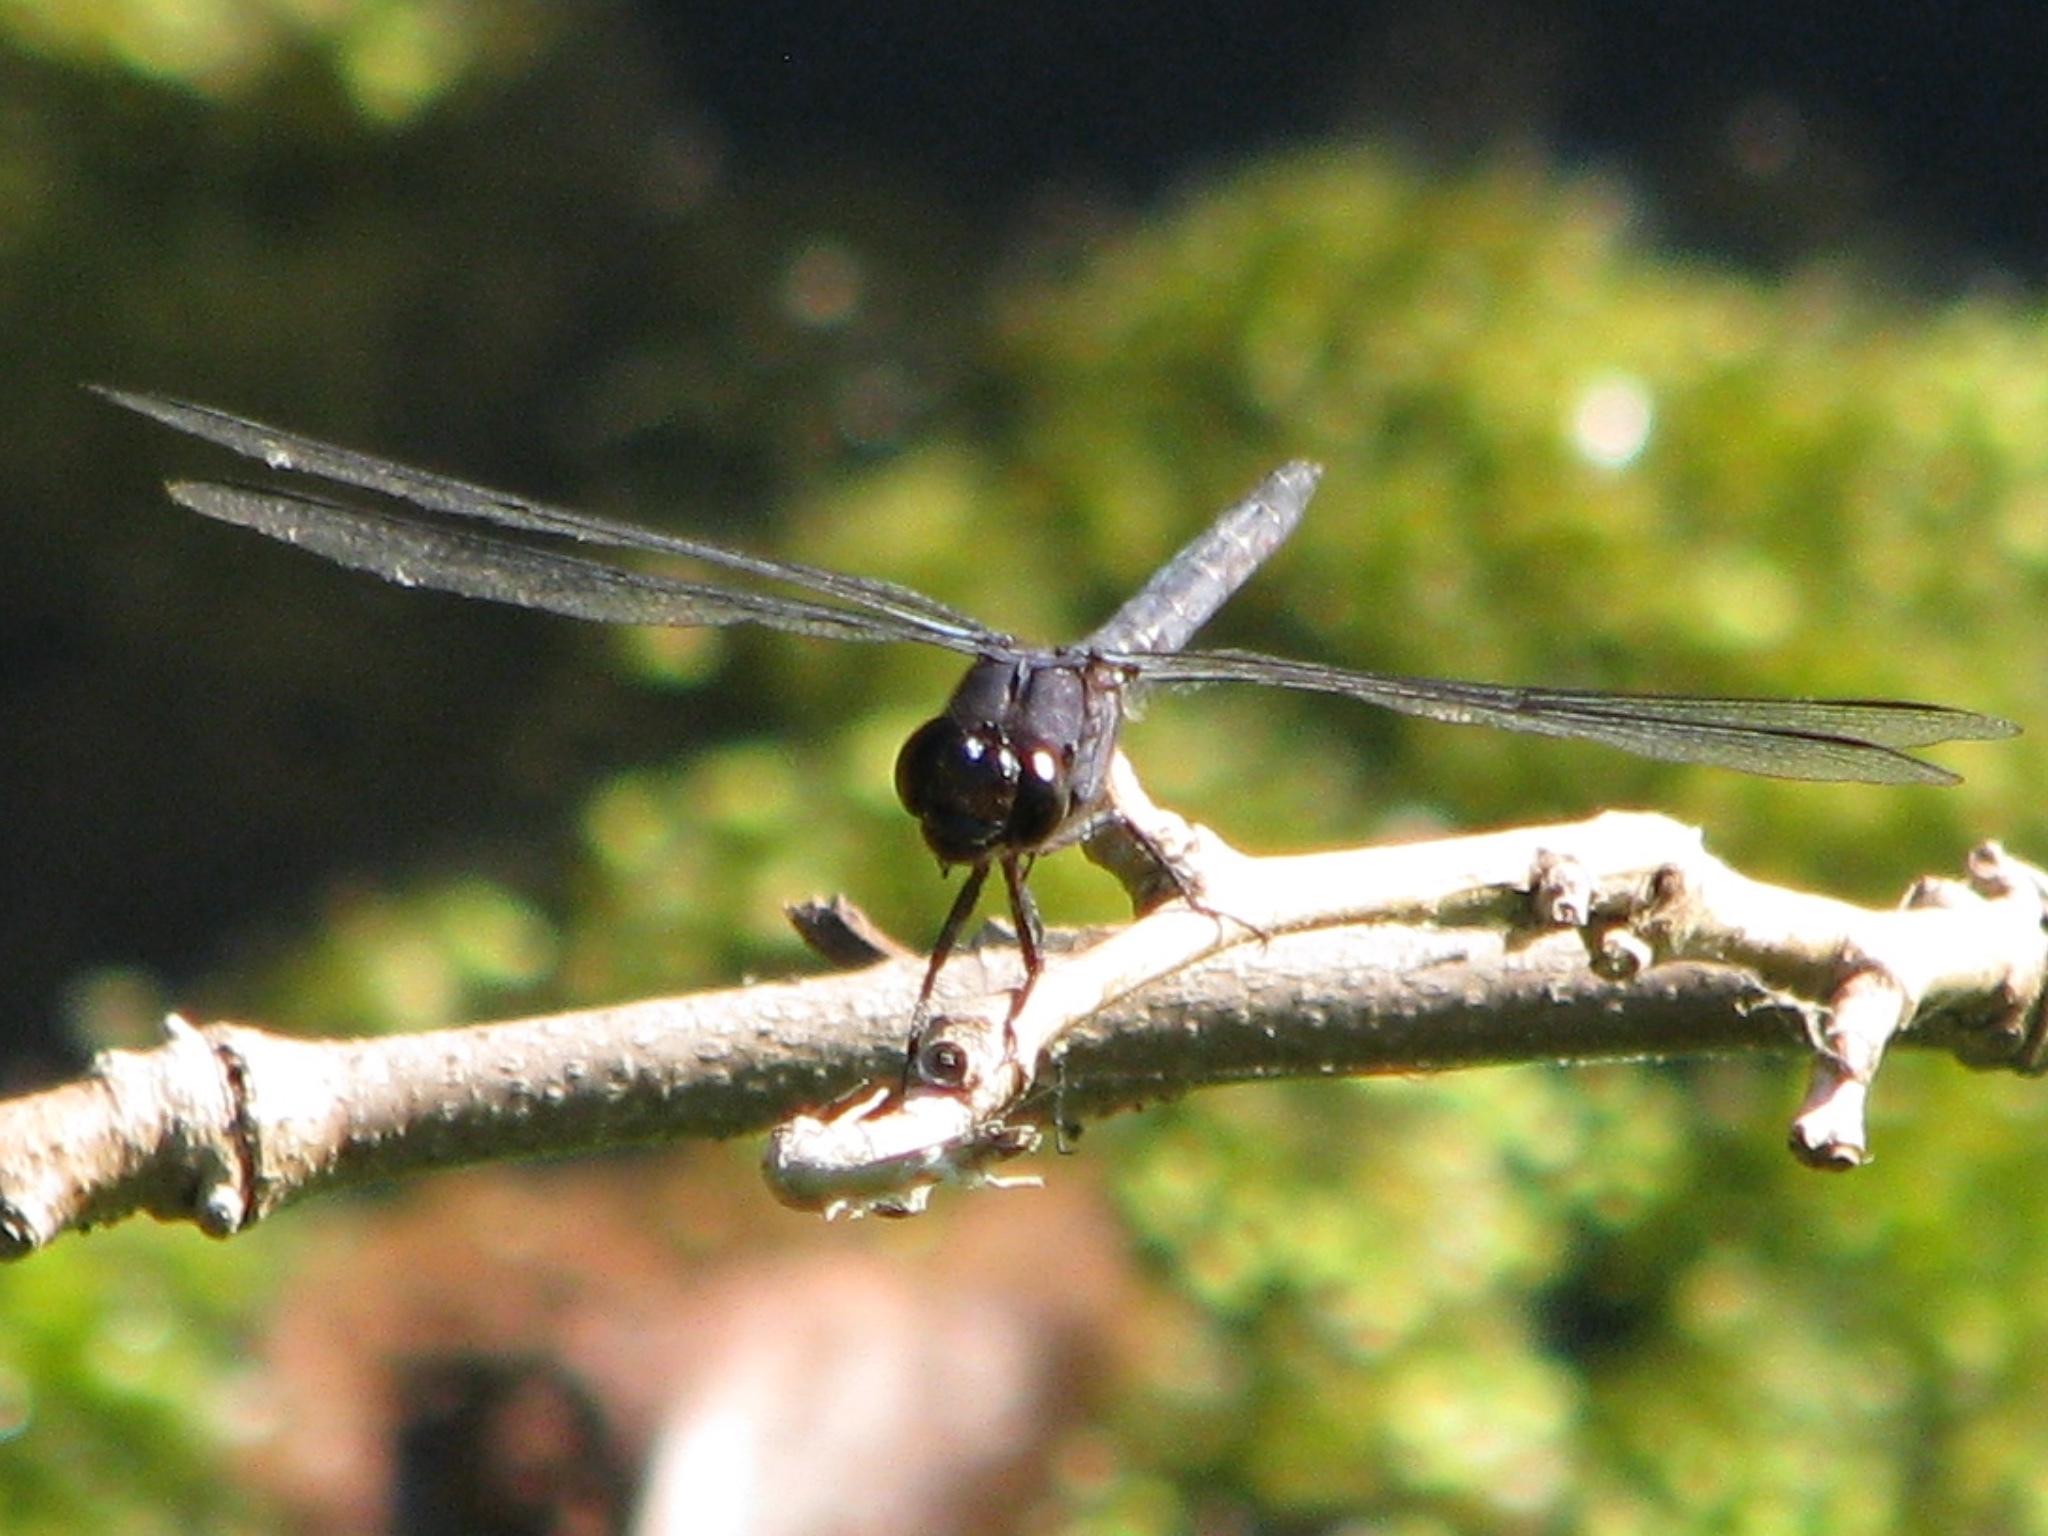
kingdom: Animalia
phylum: Arthropoda
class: Insecta
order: Odonata
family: Libellulidae
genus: Libellula
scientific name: Libellula incesta
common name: Slaty skimmer
